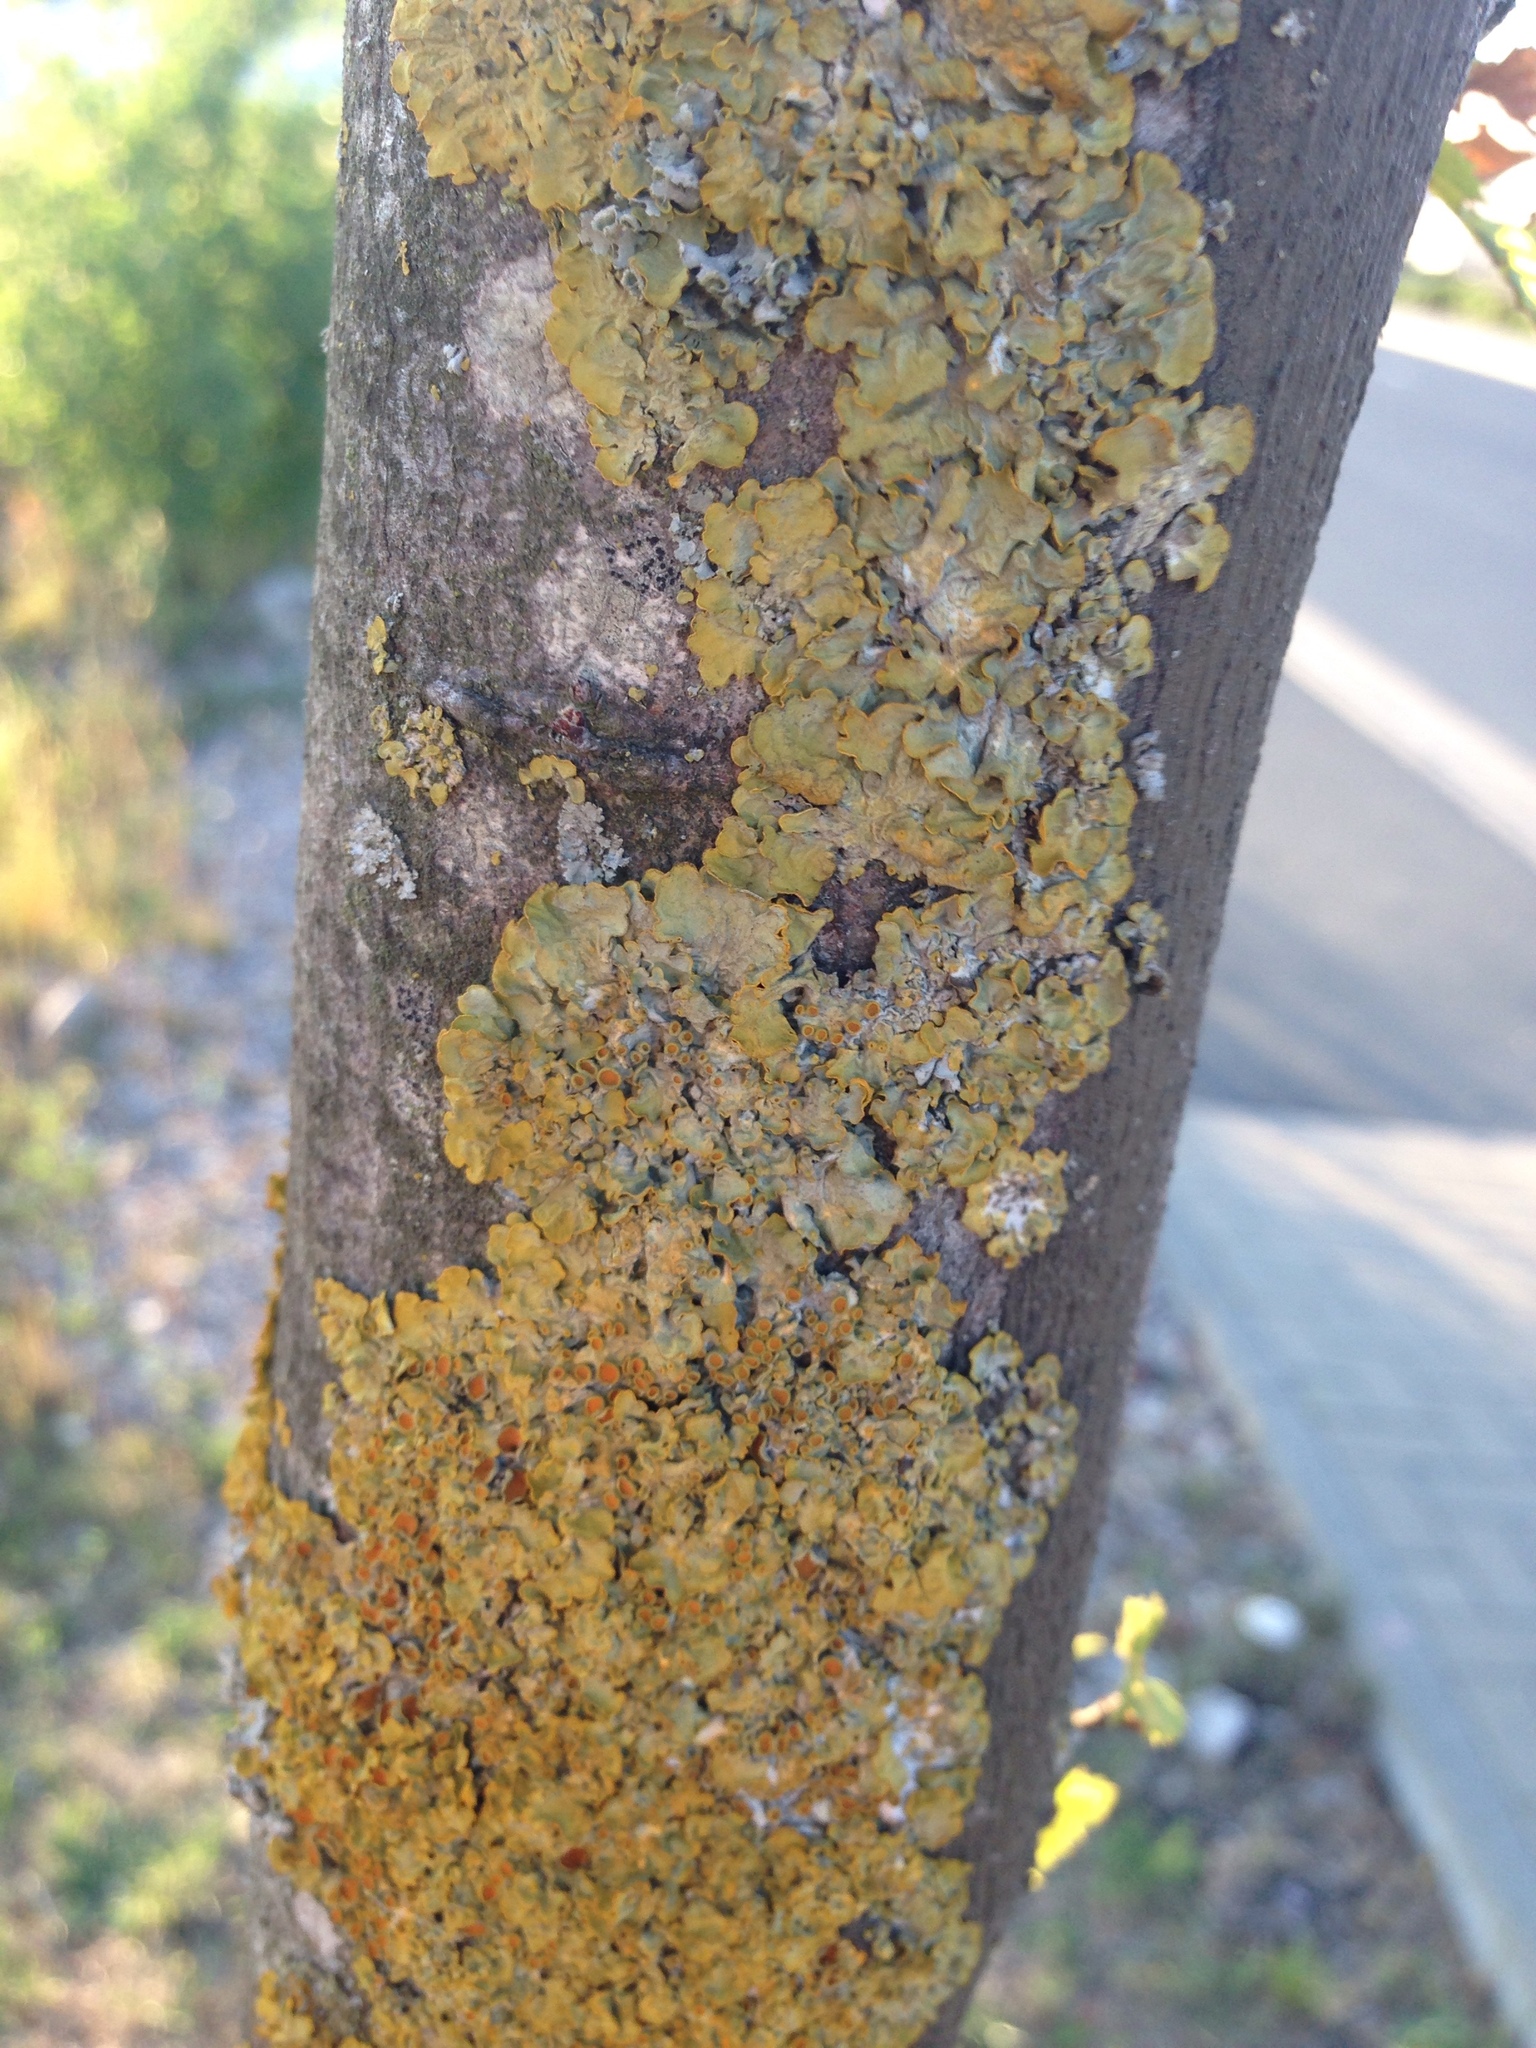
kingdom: Fungi
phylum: Ascomycota
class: Lecanoromycetes
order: Teloschistales
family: Teloschistaceae
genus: Xanthoria
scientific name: Xanthoria parietina
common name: Common orange lichen
